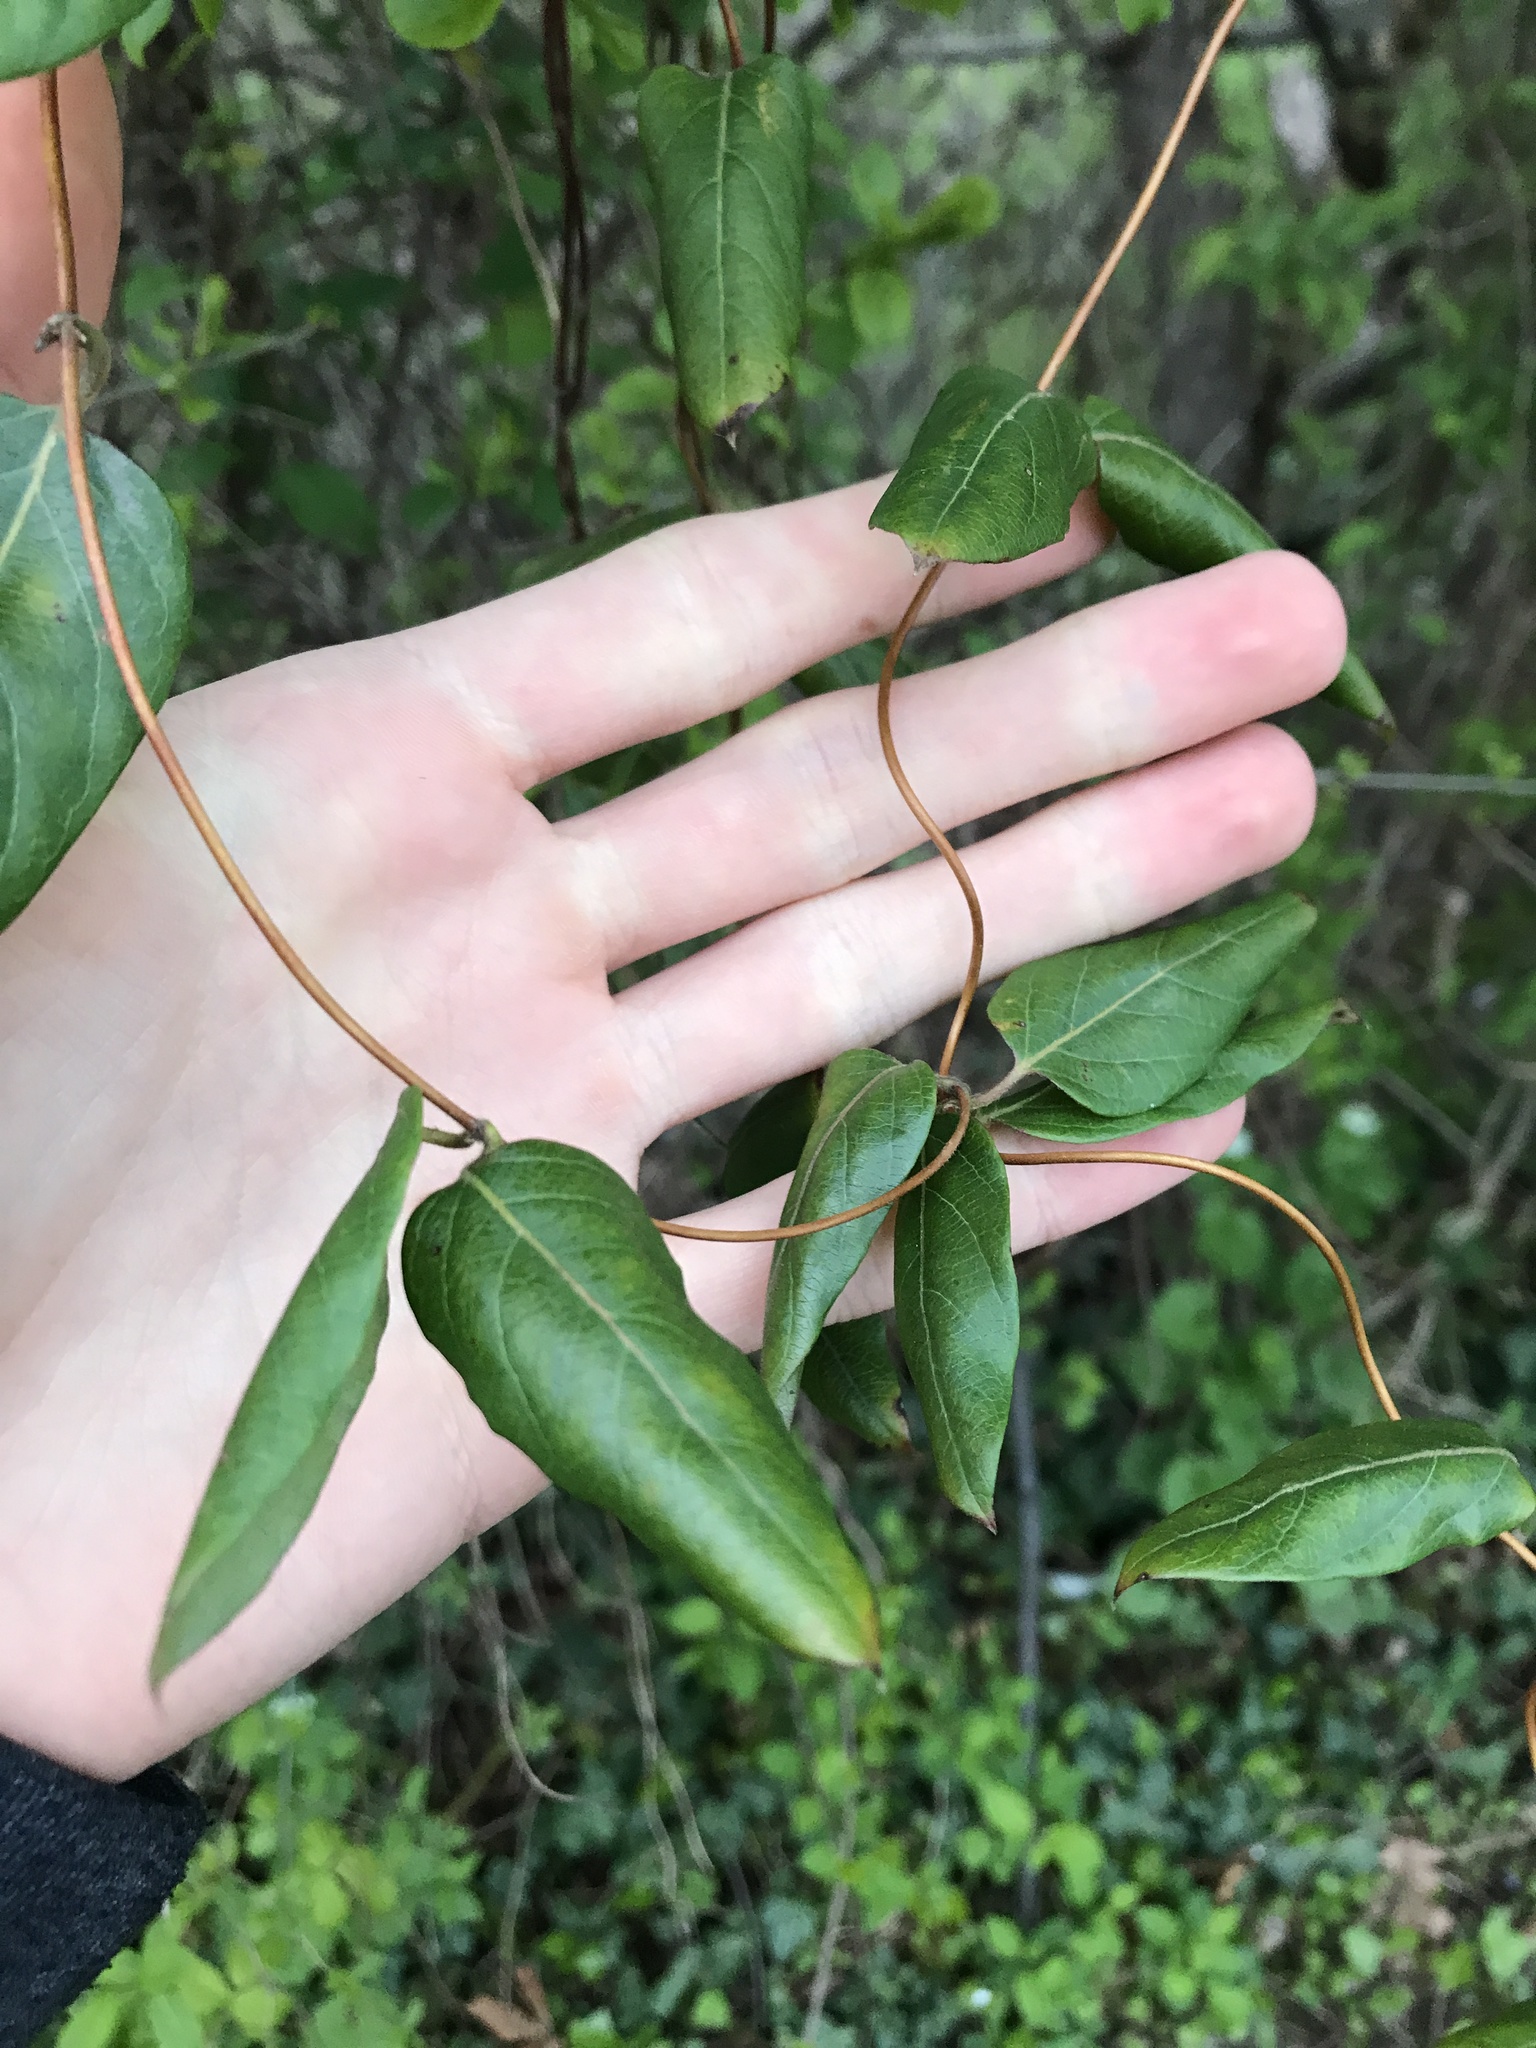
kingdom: Plantae
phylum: Tracheophyta
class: Magnoliopsida
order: Dipsacales
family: Caprifoliaceae
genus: Lonicera
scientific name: Lonicera japonica
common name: Japanese honeysuckle
